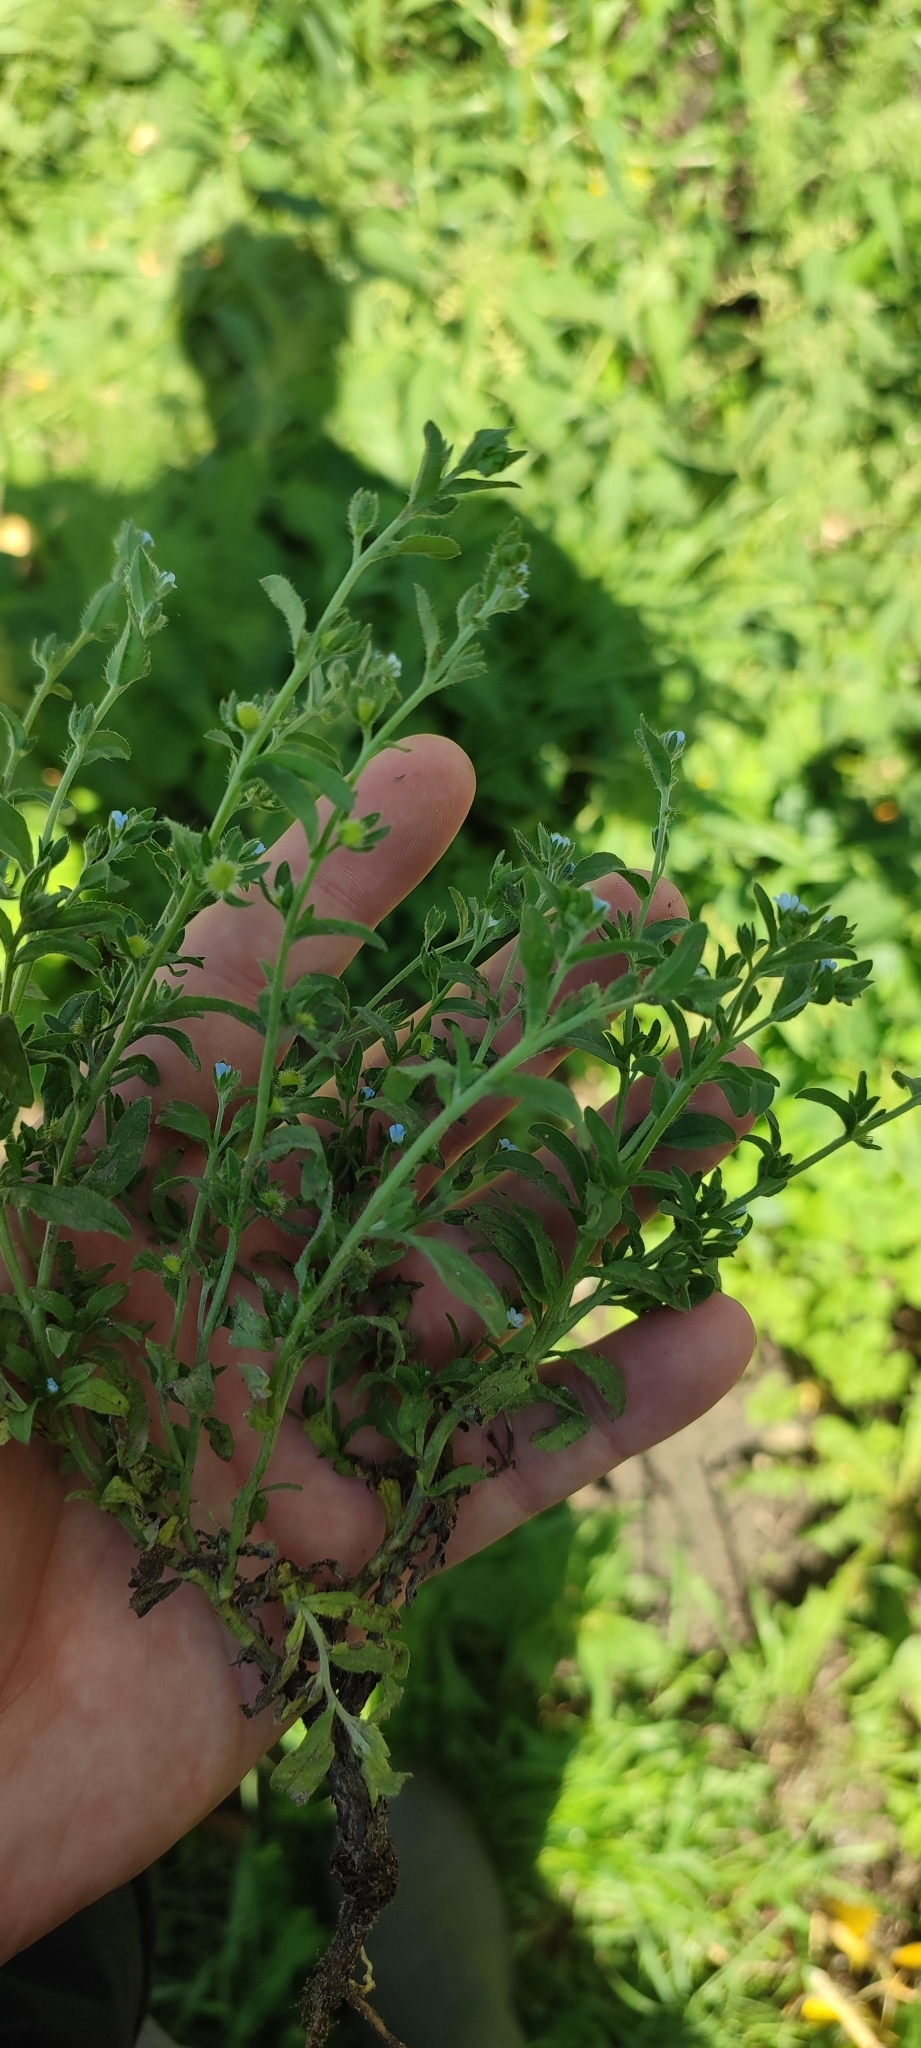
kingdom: Plantae
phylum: Tracheophyta
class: Magnoliopsida
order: Boraginales
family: Boraginaceae
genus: Lappula
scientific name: Lappula squarrosa
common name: European stickseed
